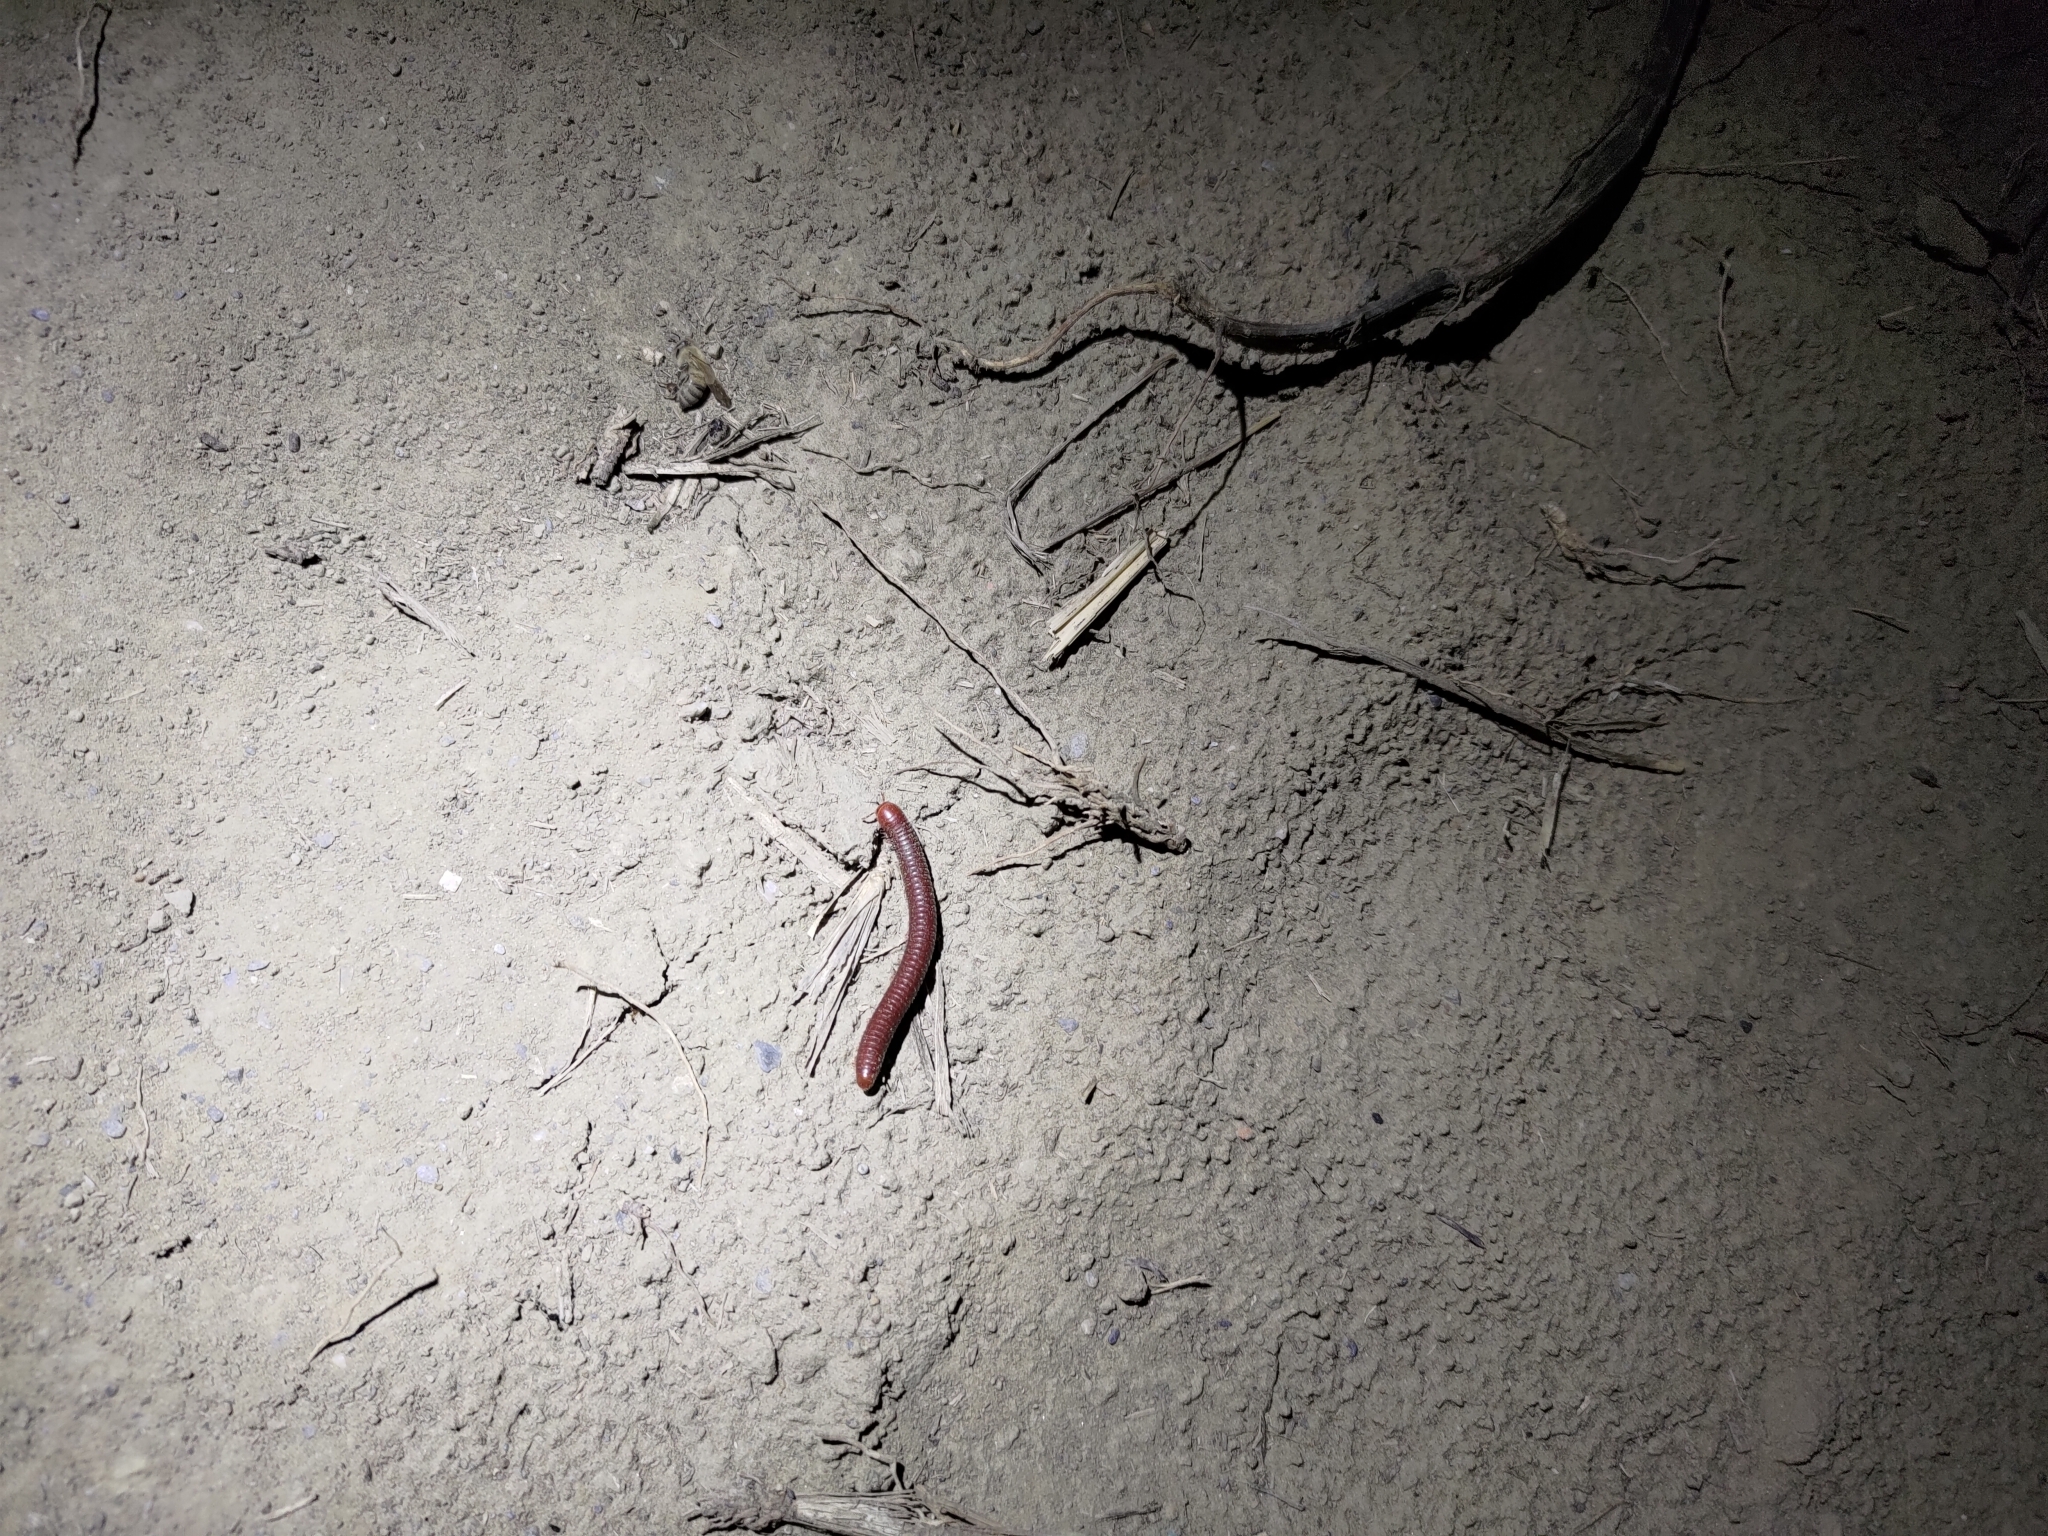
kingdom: Animalia
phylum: Arthropoda
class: Diplopoda
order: Spirobolida
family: Pachybolidae
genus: Trigoniulus
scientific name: Trigoniulus corallinus
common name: Millipede
